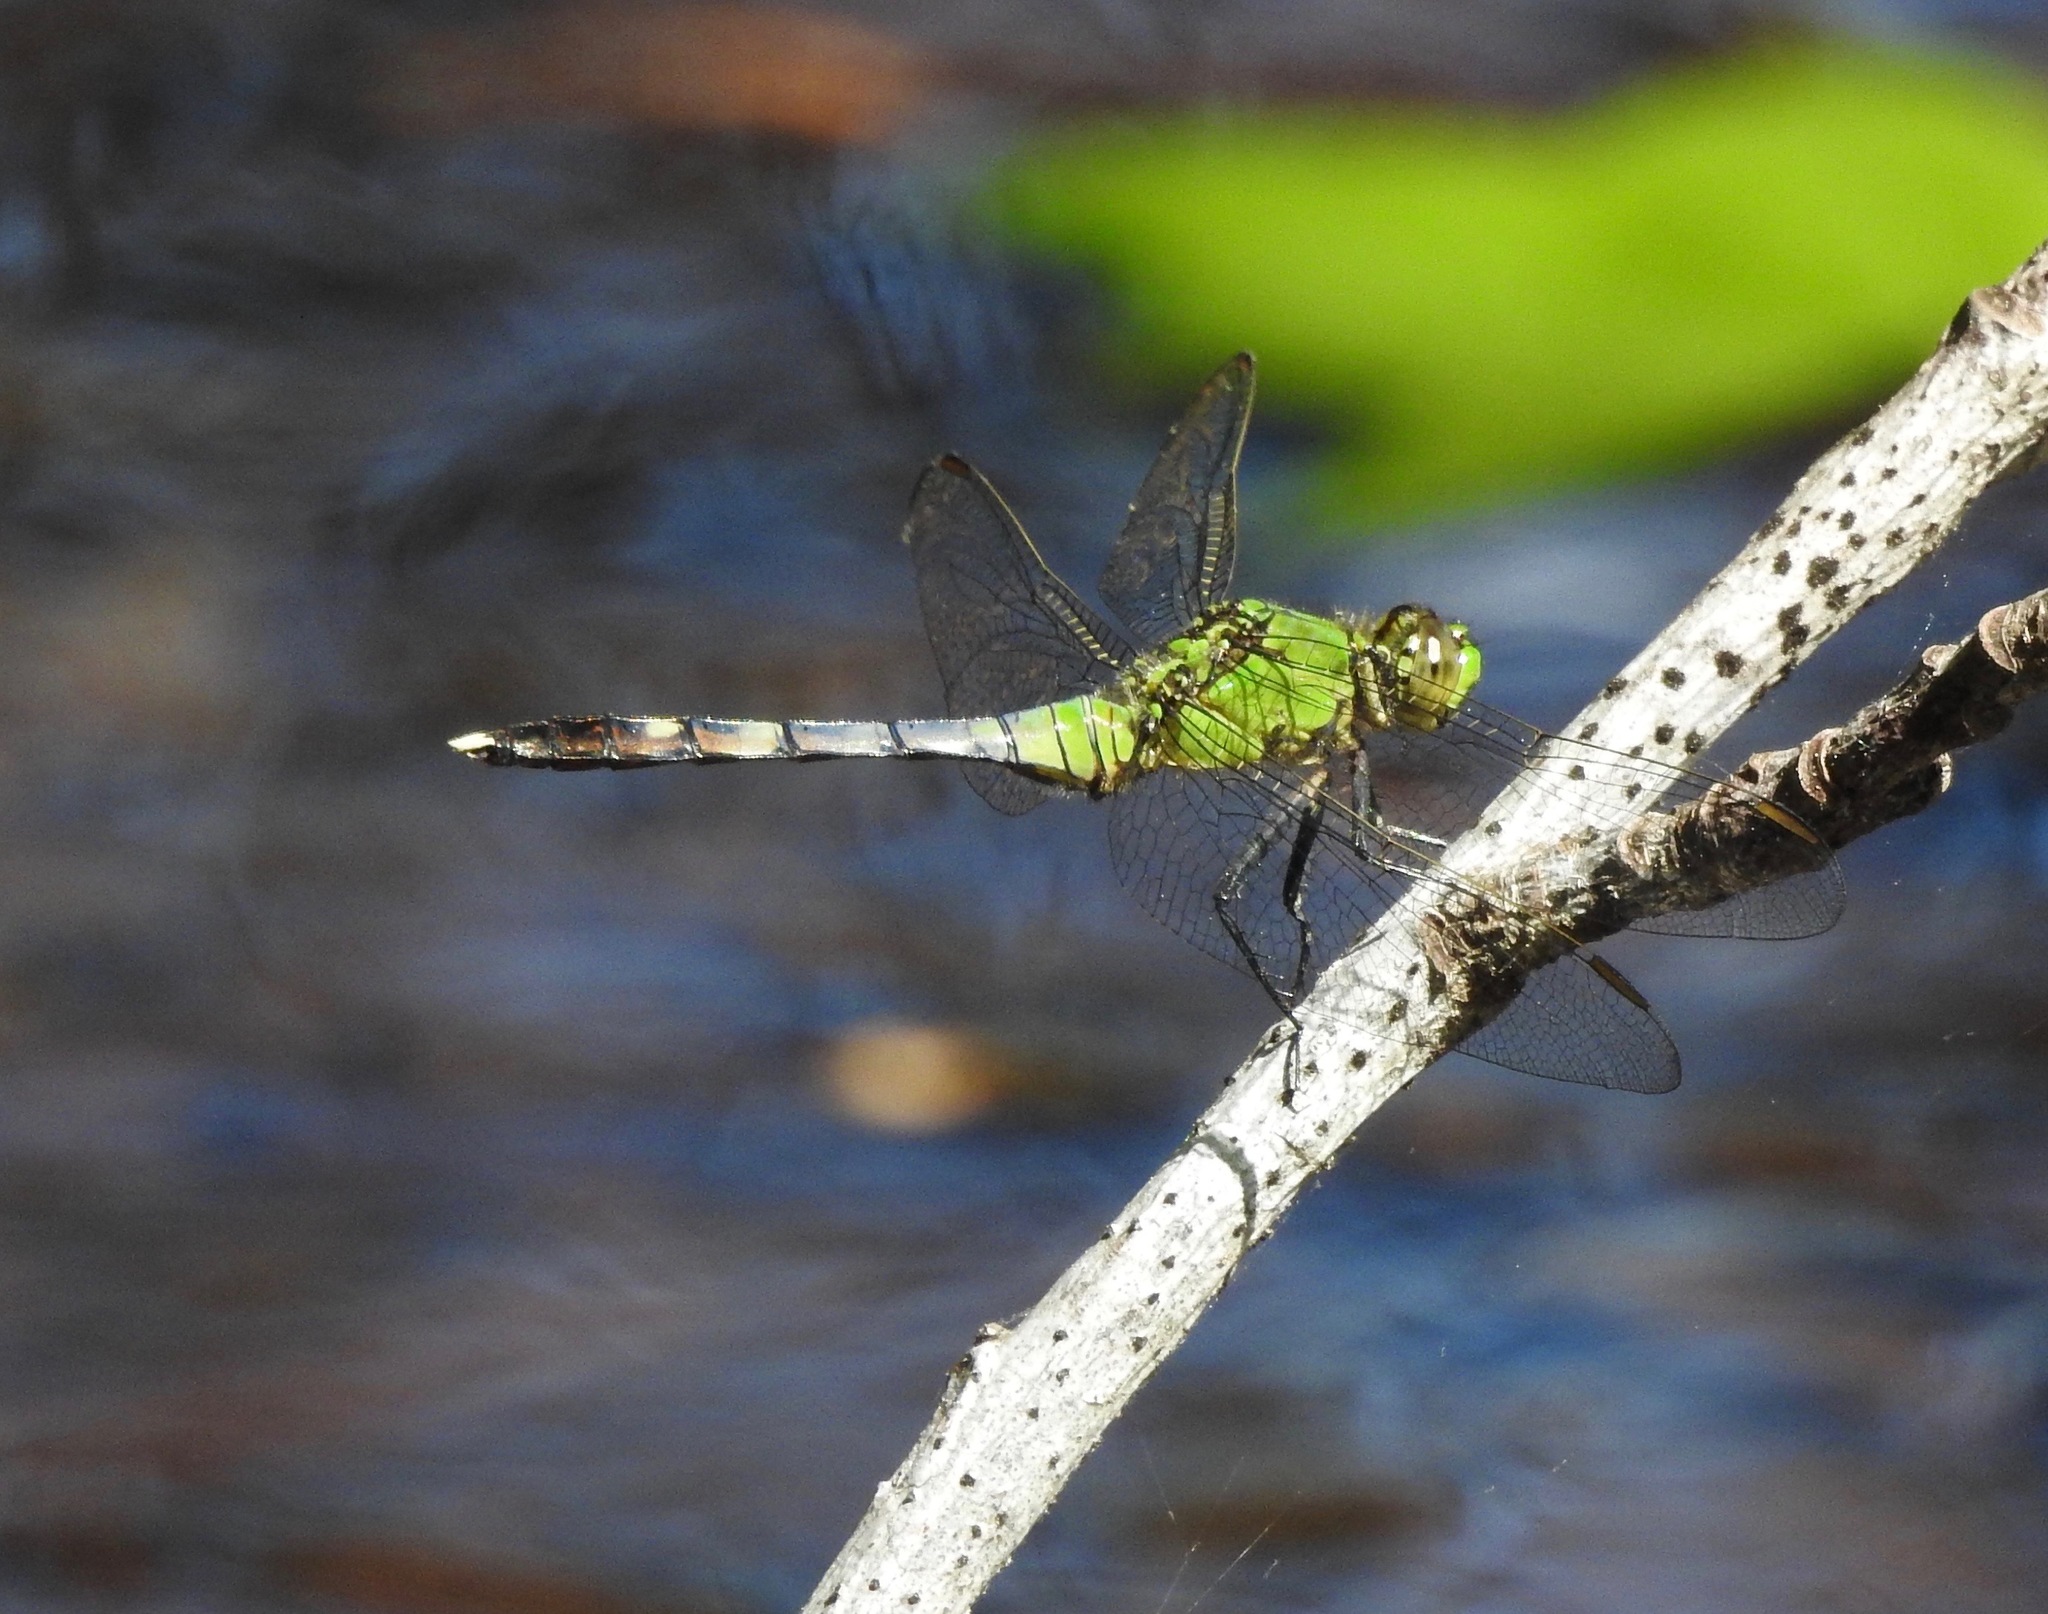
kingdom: Animalia
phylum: Arthropoda
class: Insecta
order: Odonata
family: Libellulidae
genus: Erythemis
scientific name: Erythemis simplicicollis
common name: Eastern pondhawk
